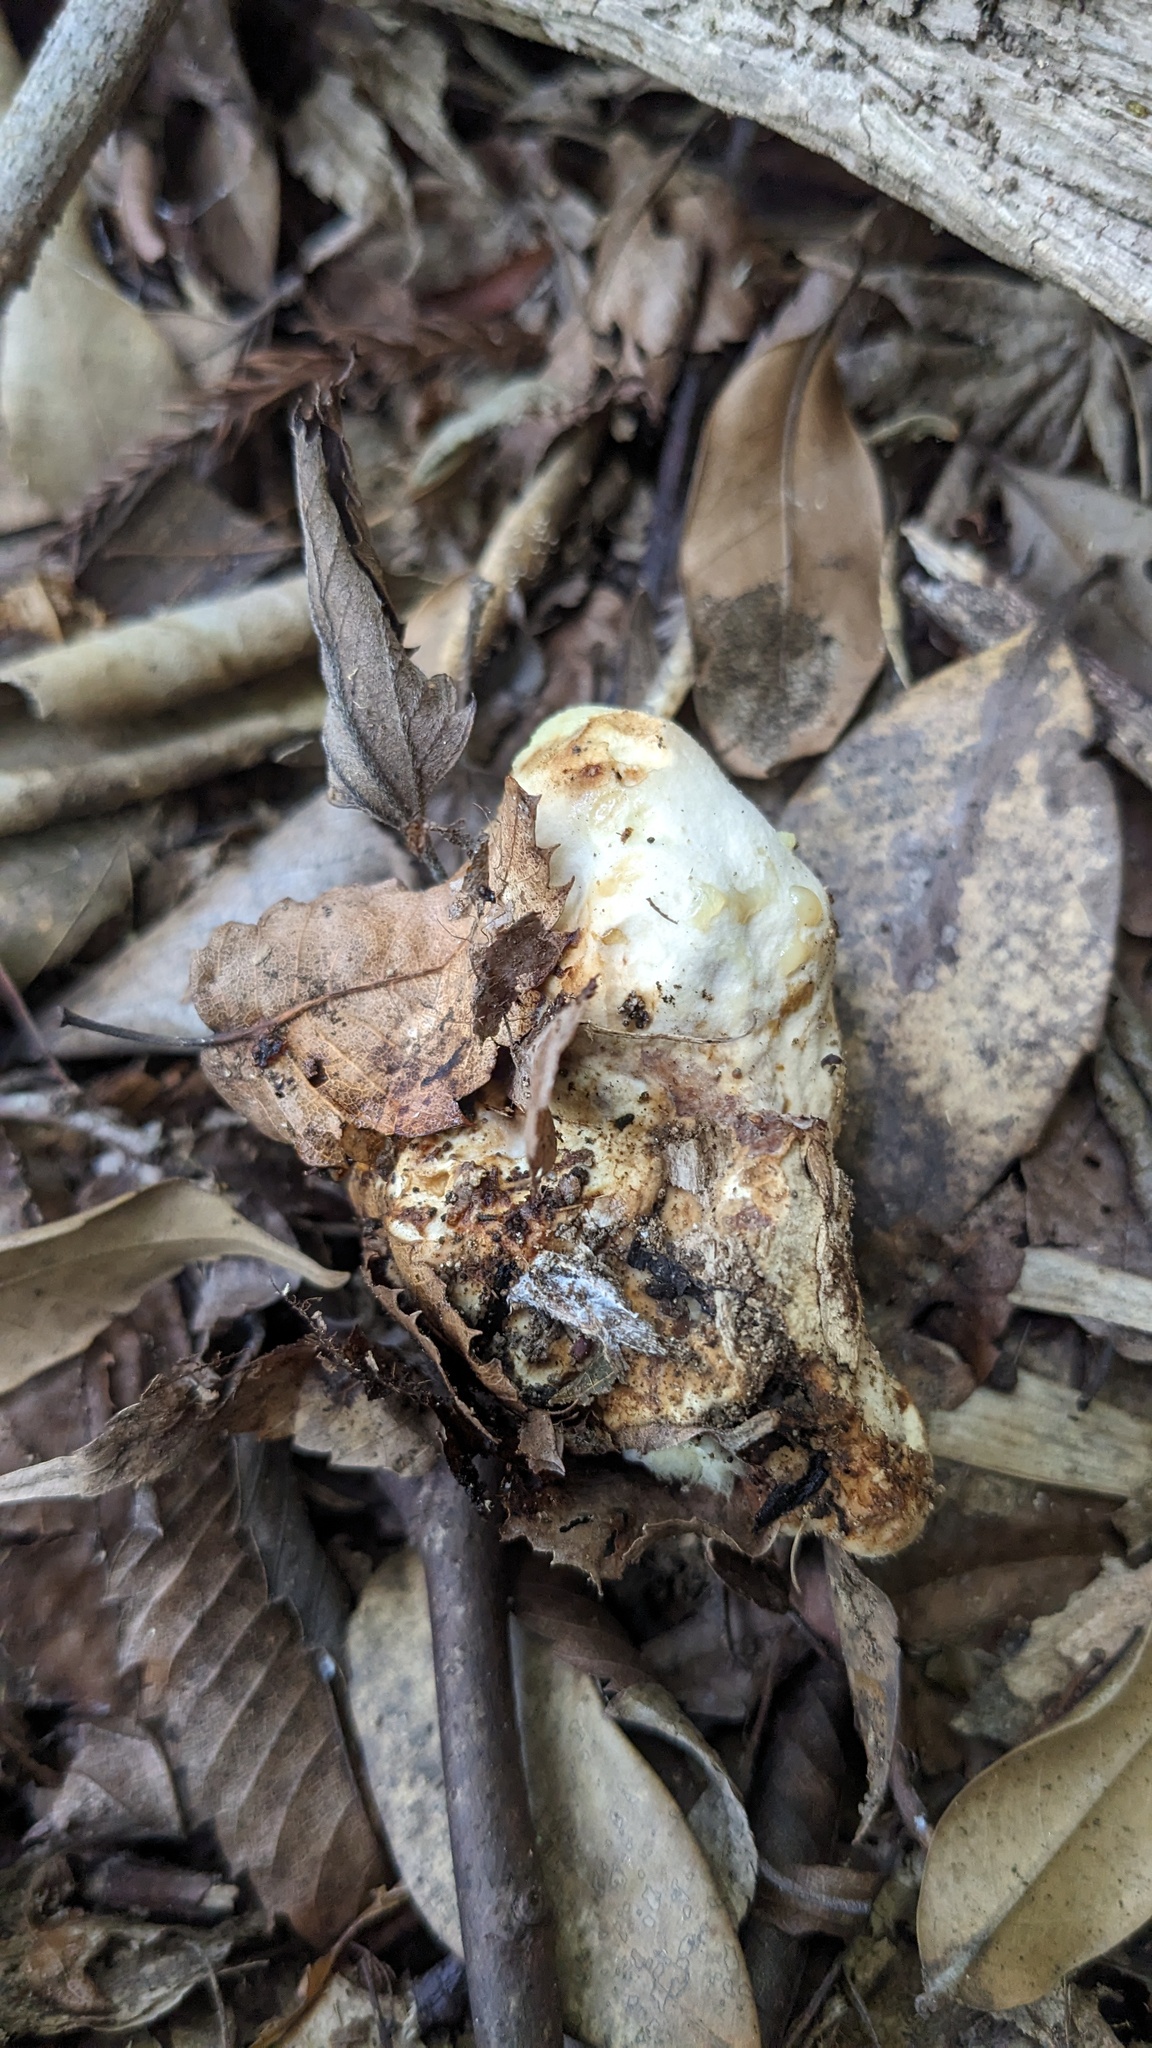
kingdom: Fungi
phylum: Basidiomycota
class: Agaricomycetes
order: Polyporales
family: Laetiporaceae
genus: Laetiporus
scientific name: Laetiporus sulphureus
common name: Chicken of the woods
